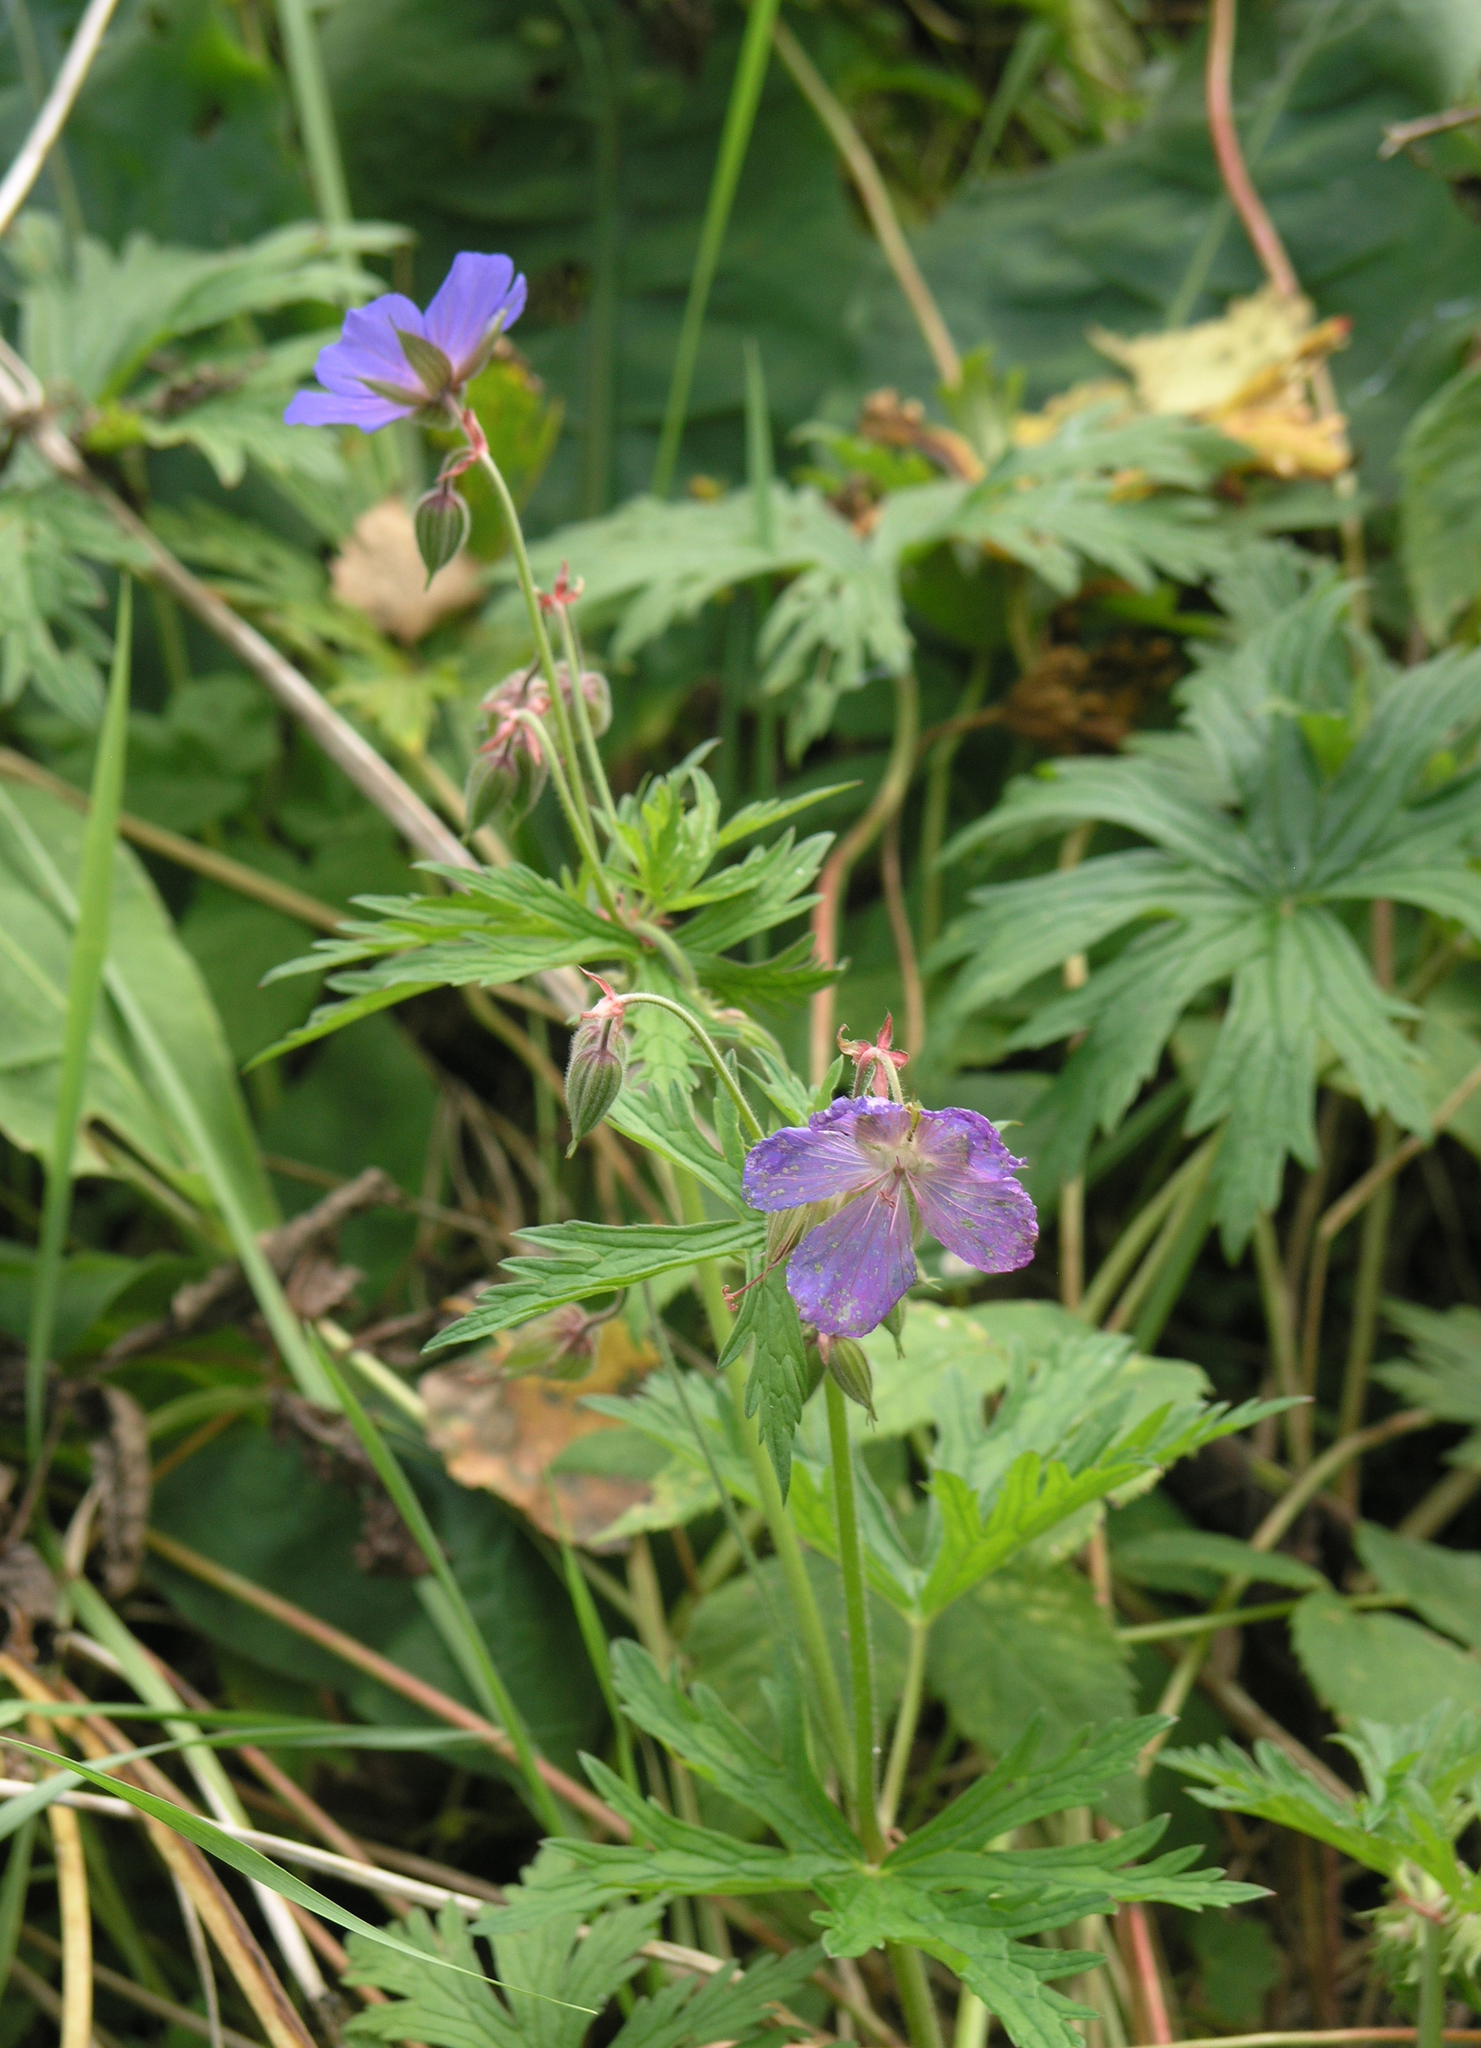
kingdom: Plantae
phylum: Tracheophyta
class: Magnoliopsida
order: Geraniales
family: Geraniaceae
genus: Geranium
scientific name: Geranium pratense
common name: Meadow crane's-bill
